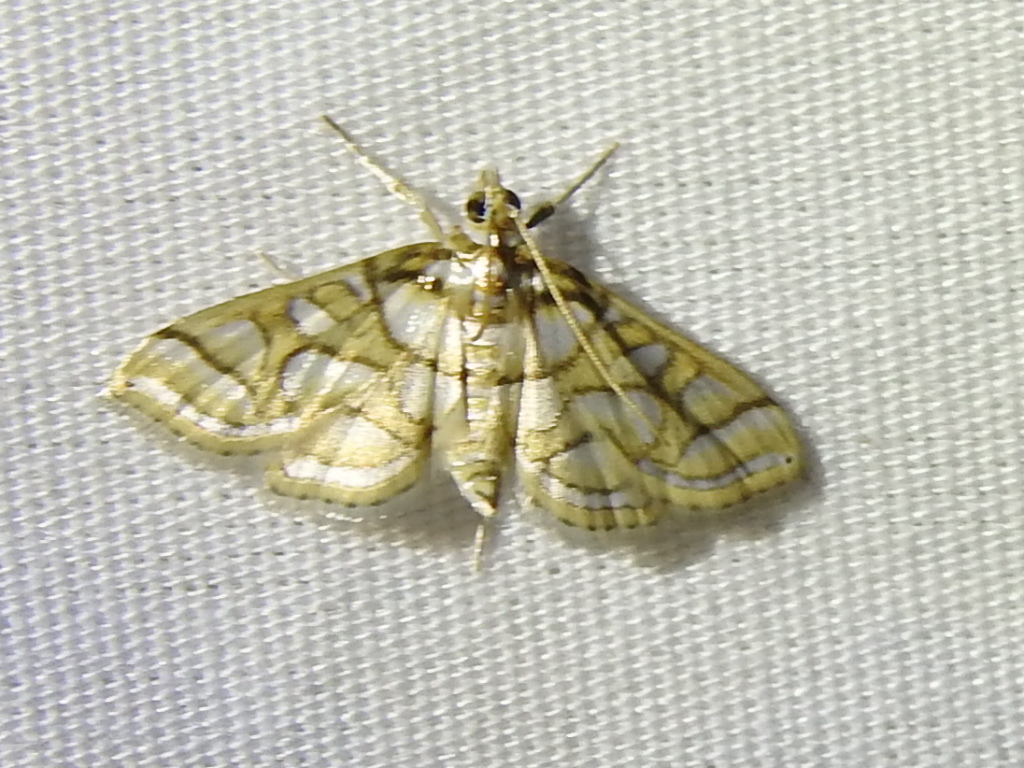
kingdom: Animalia
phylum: Arthropoda
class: Insecta
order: Lepidoptera
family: Crambidae
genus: Pseudopyrausta
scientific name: Pseudopyrausta santatalis
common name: Moth
